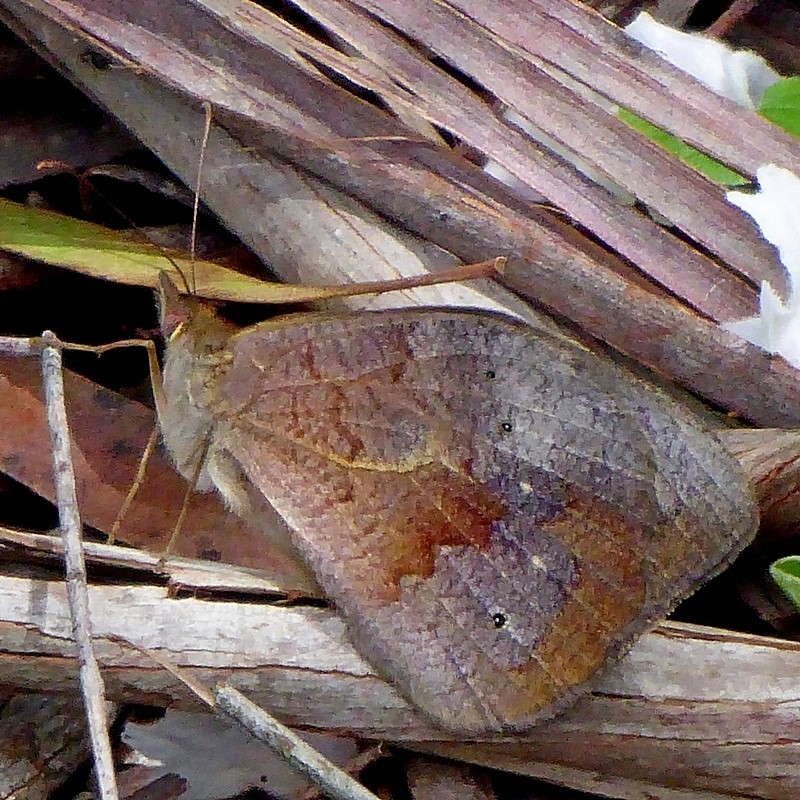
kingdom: Animalia
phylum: Arthropoda
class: Insecta
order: Lepidoptera
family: Nymphalidae
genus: Heteronympha
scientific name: Heteronympha merope
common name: Common brown
